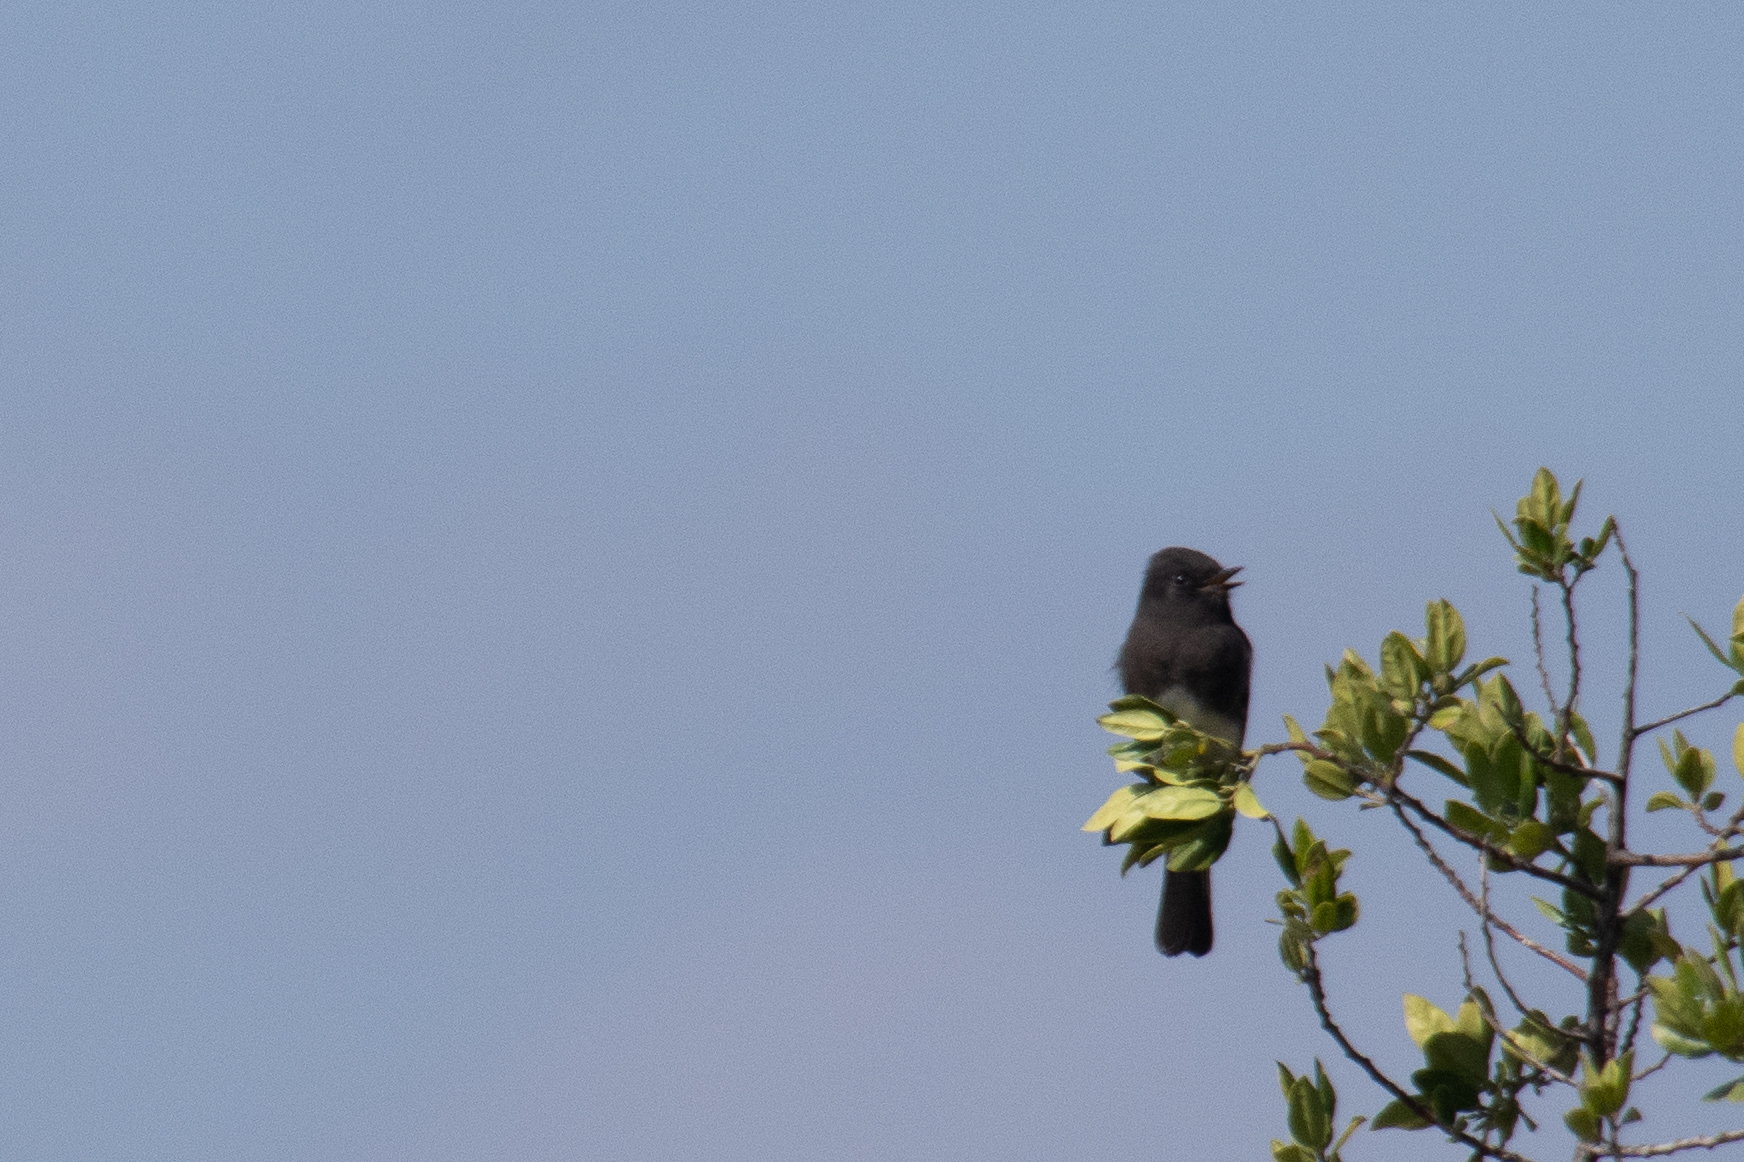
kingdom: Animalia
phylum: Chordata
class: Aves
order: Passeriformes
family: Tyrannidae
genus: Sayornis
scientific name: Sayornis nigricans
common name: Black phoebe
